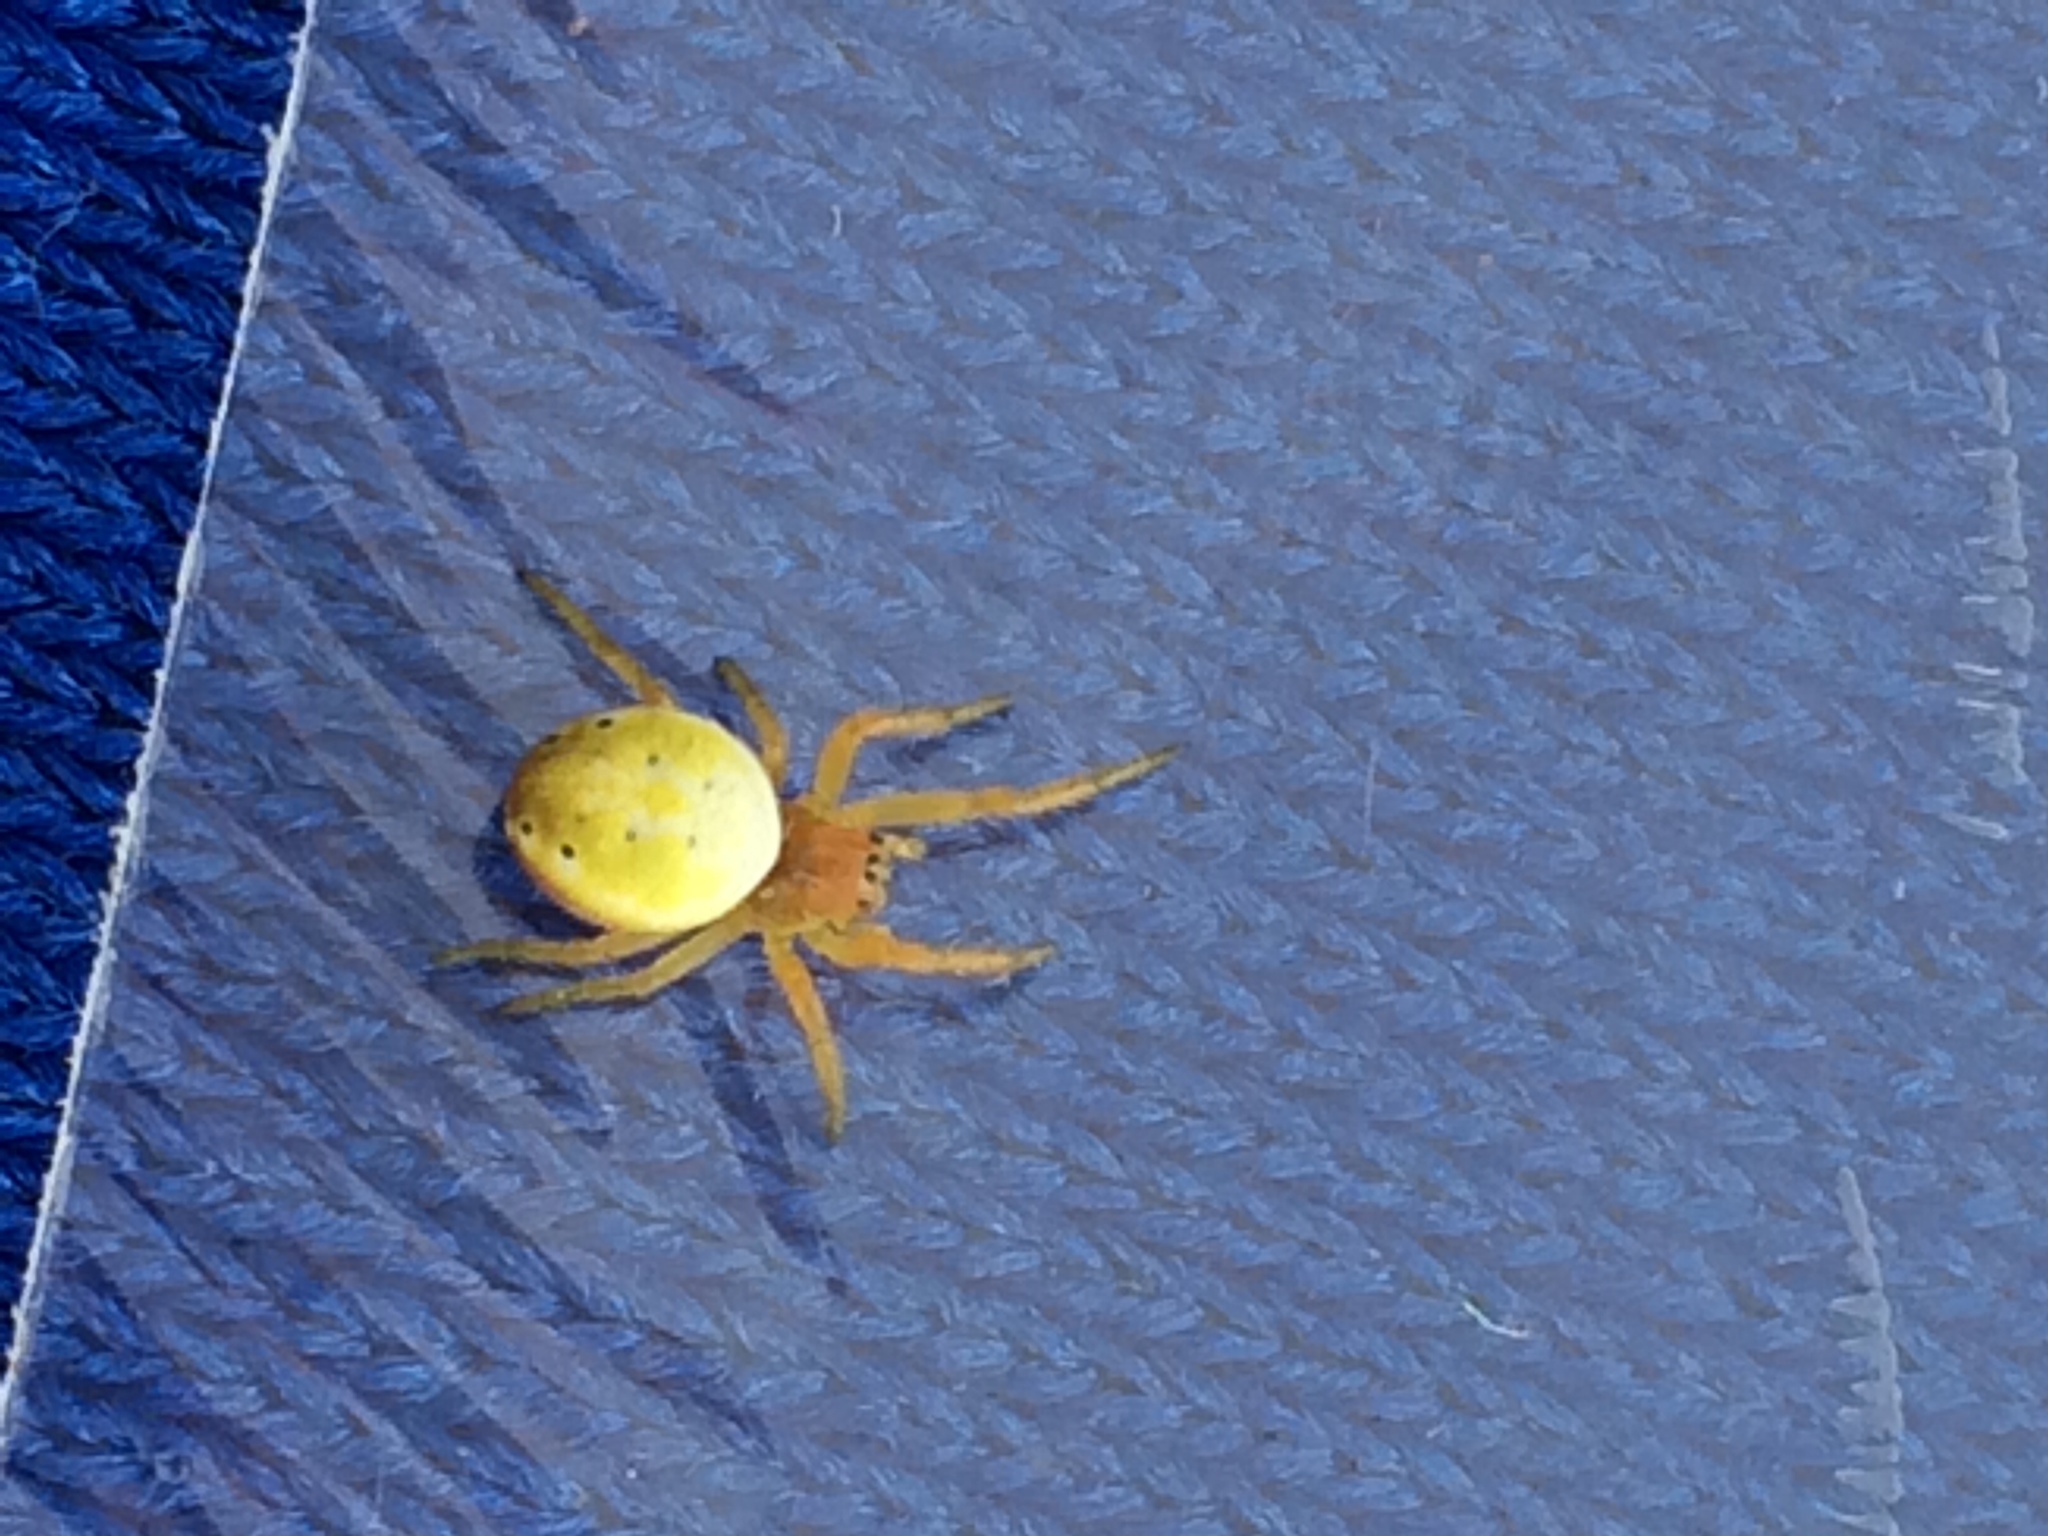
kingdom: Animalia
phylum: Arthropoda
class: Arachnida
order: Araneae
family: Araneidae
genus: Araniella
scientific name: Araniella displicata
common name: Sixspotted orb weaver
